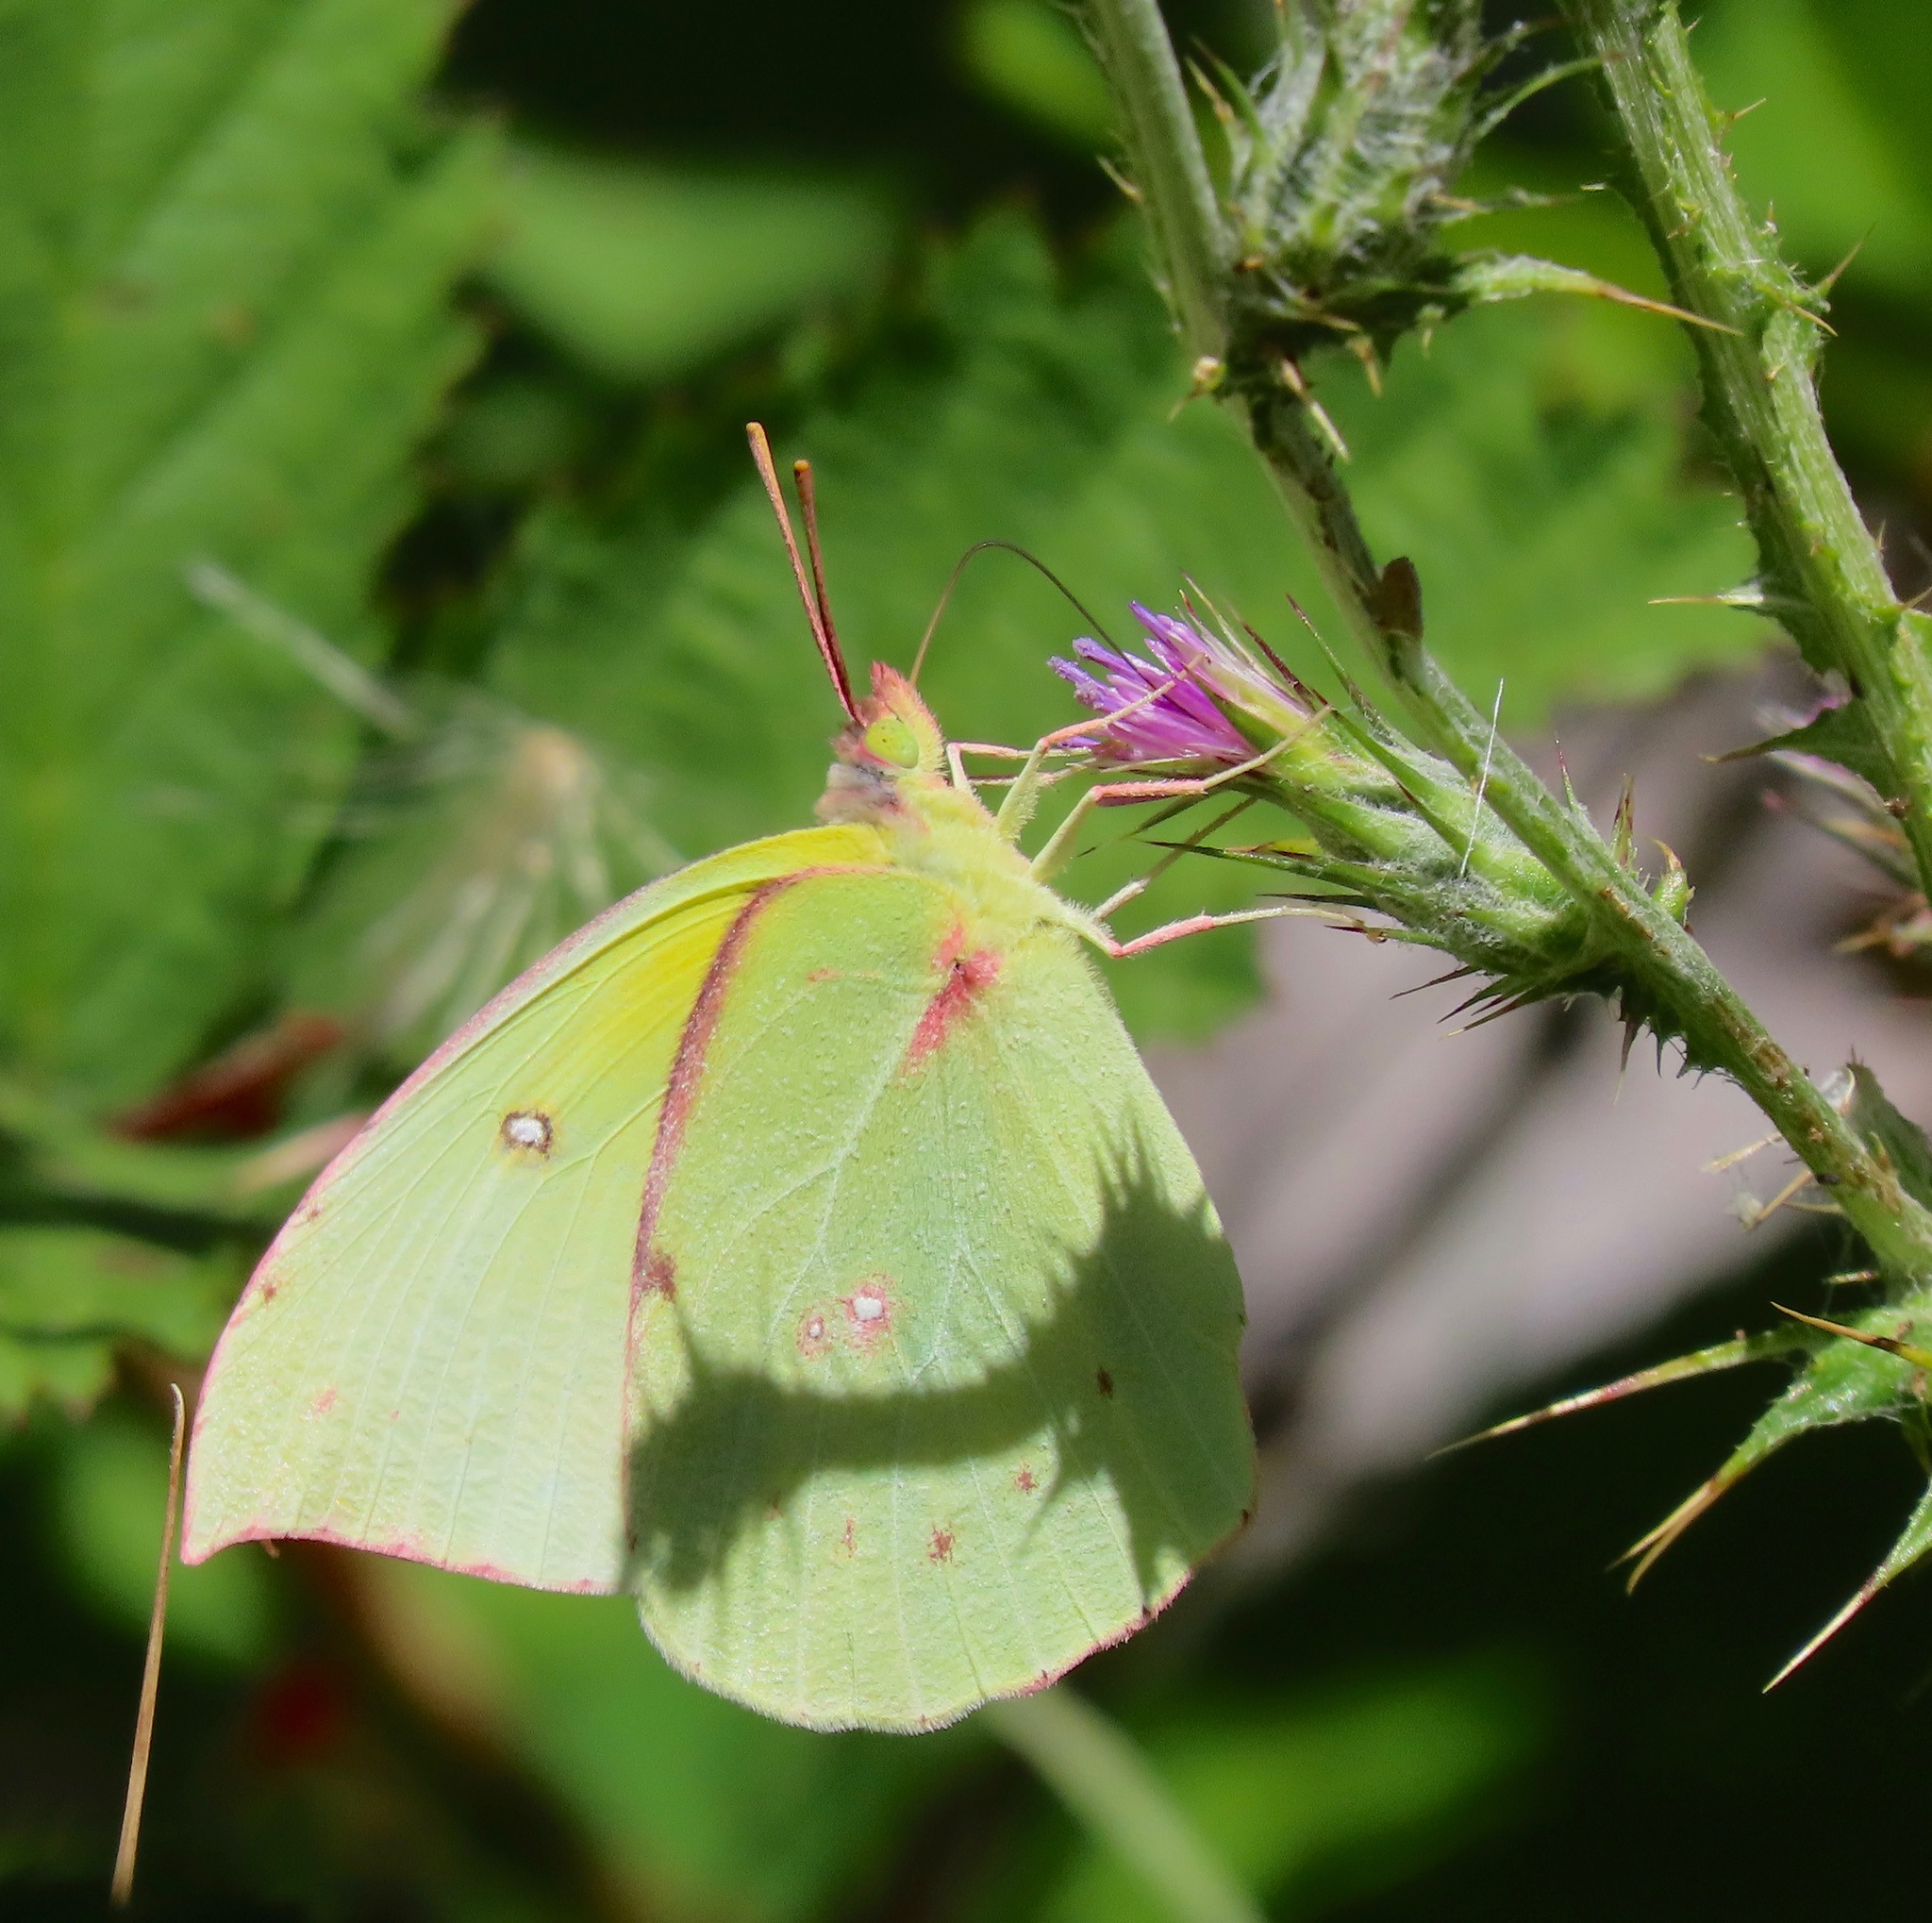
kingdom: Animalia
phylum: Arthropoda
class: Insecta
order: Lepidoptera
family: Pieridae
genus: Zerene
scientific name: Zerene eurydice
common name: California dogface
